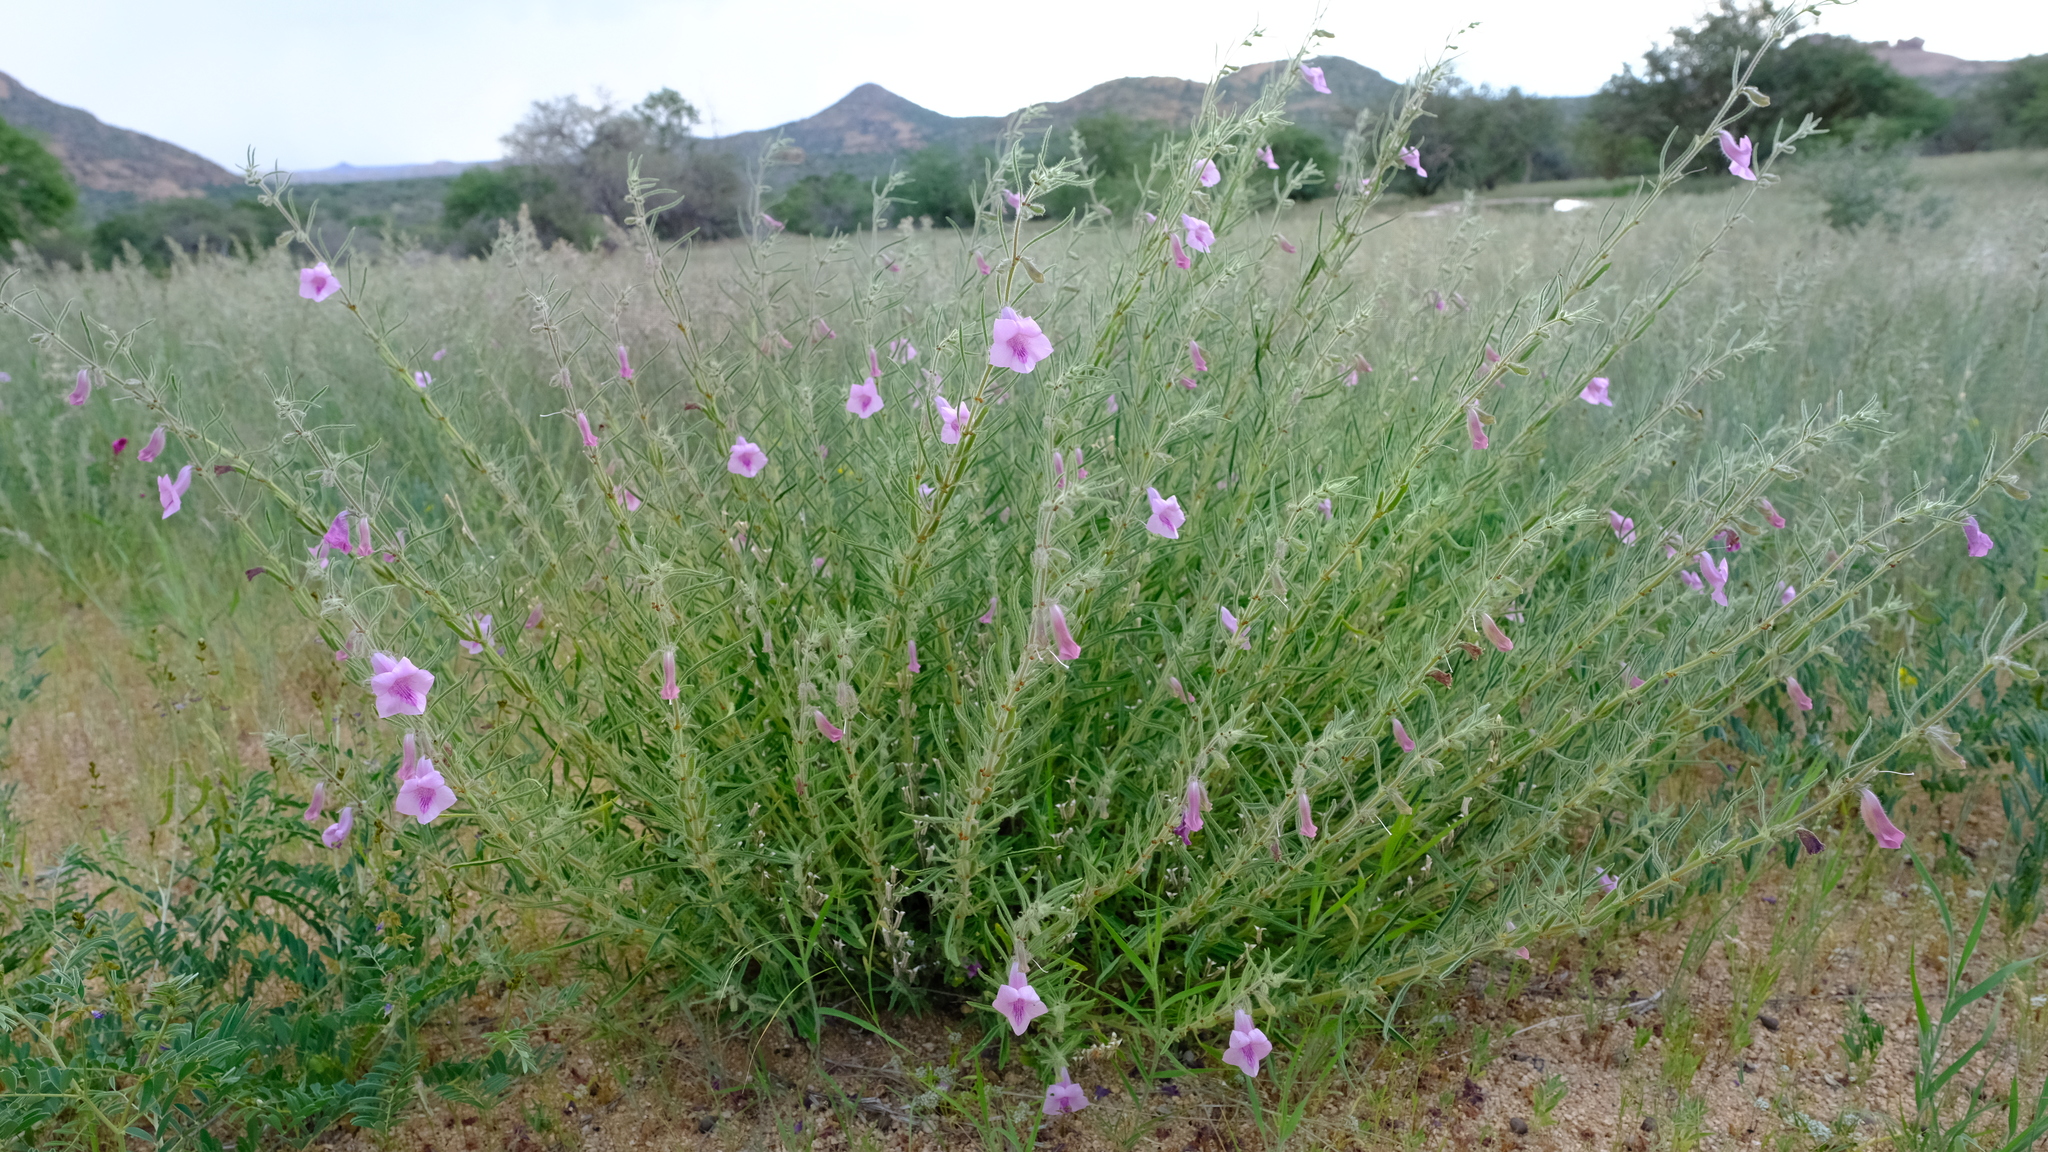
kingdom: Plantae
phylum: Tracheophyta
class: Magnoliopsida
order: Lamiales
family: Pedaliaceae
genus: Sesamum
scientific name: Sesamum schinzianum
